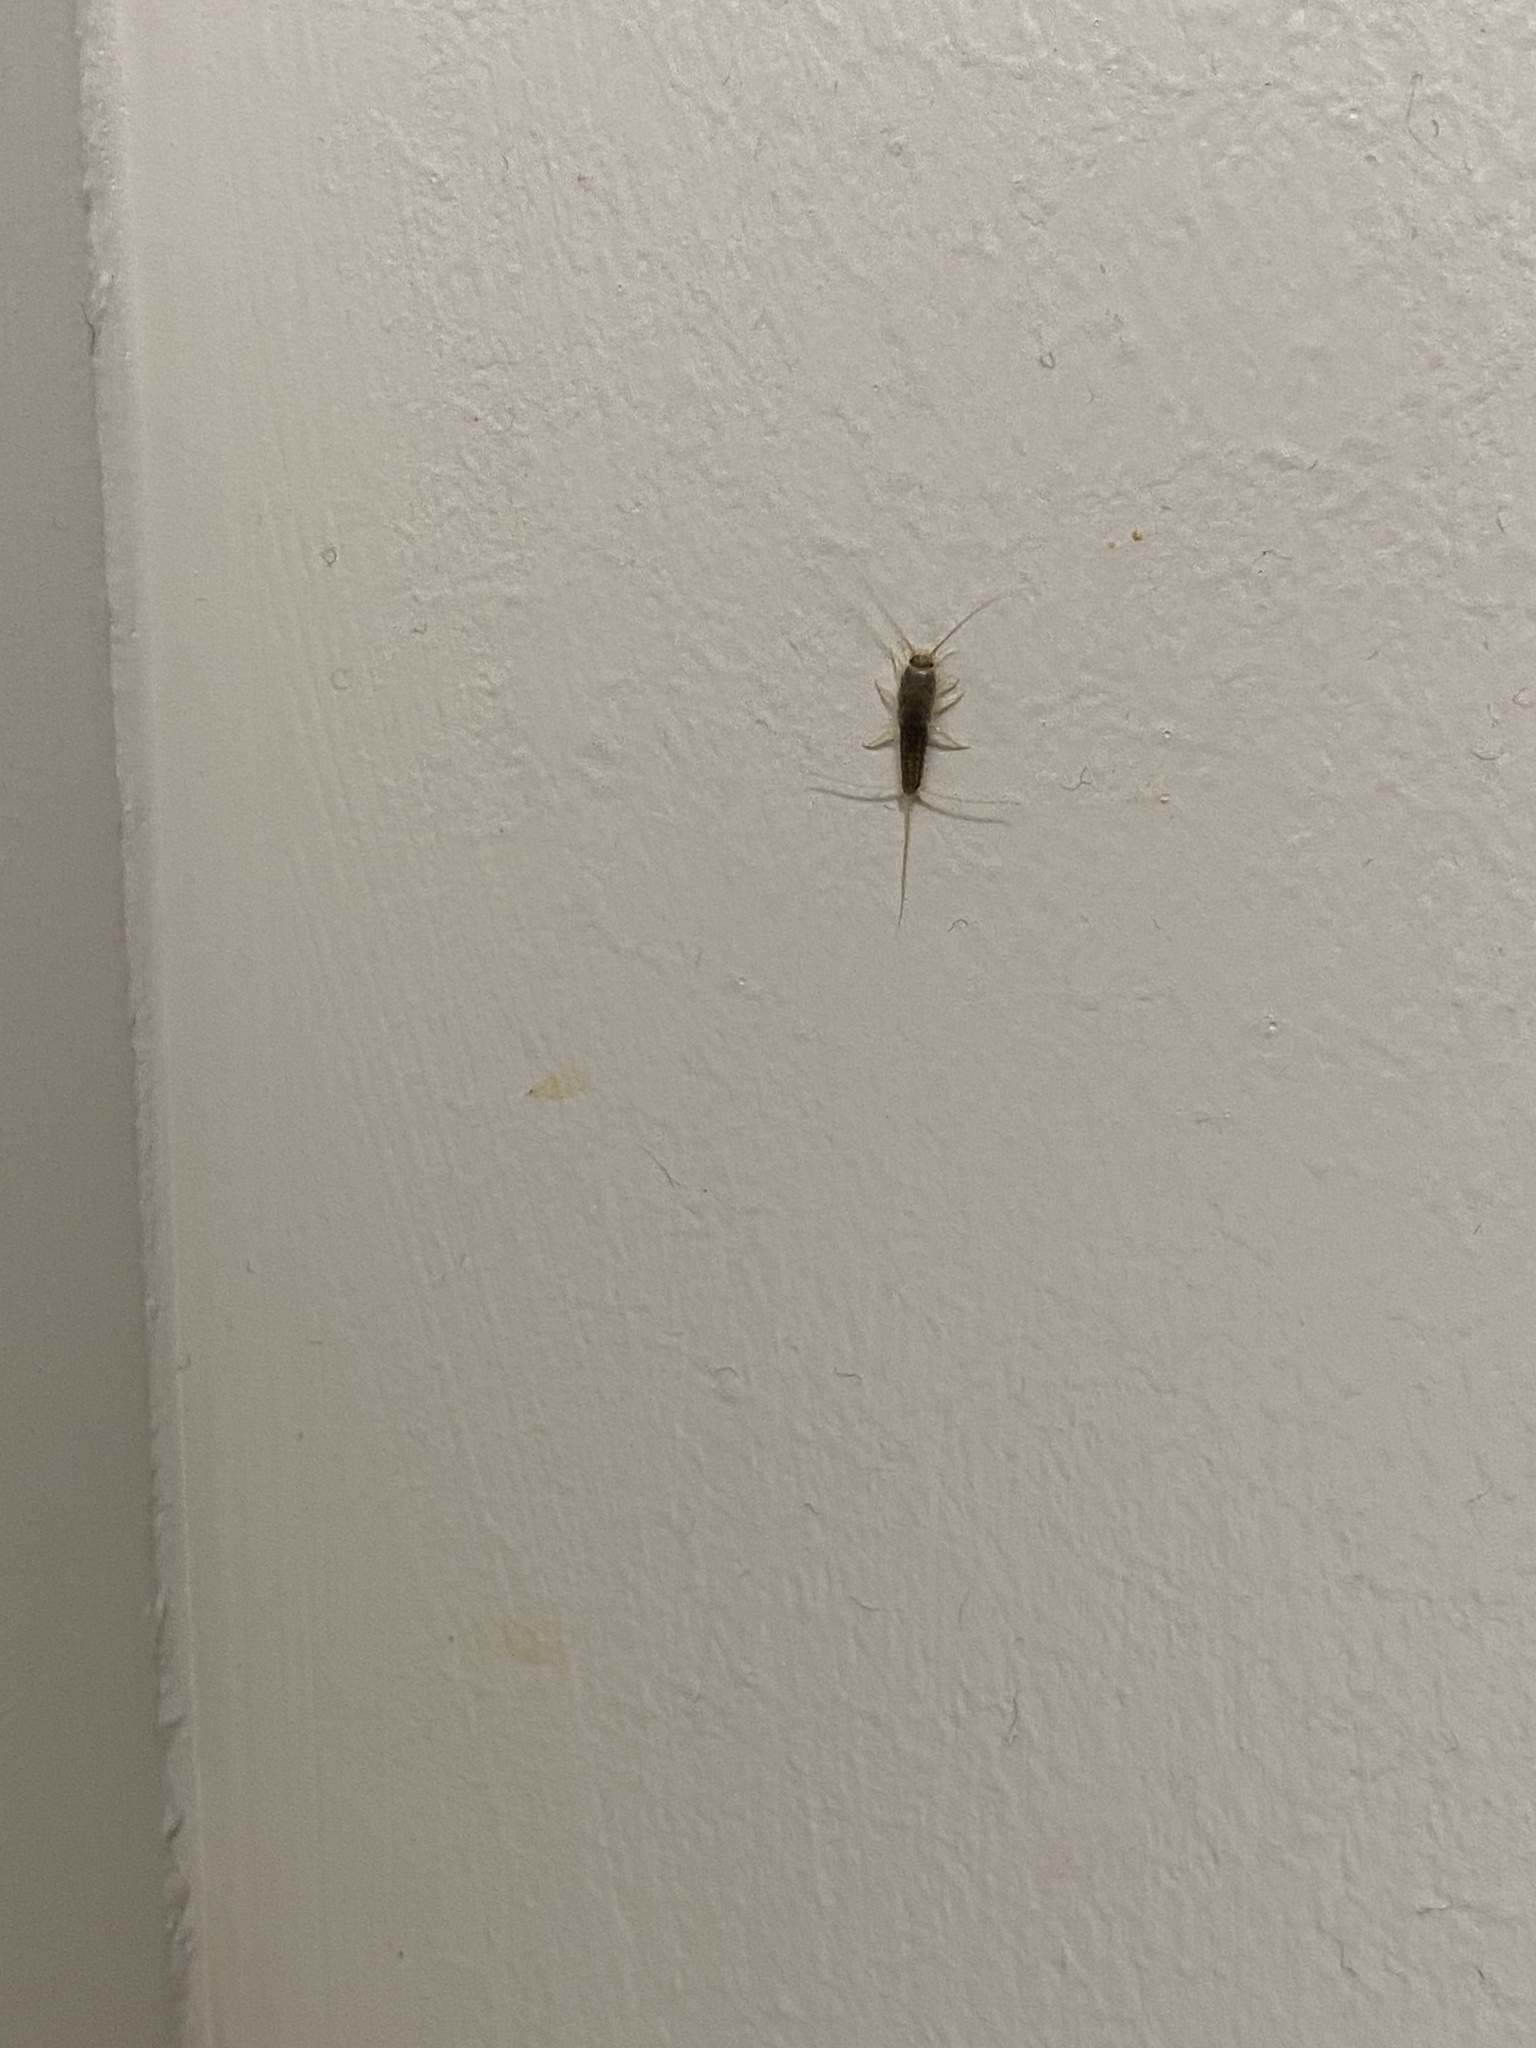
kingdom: Animalia
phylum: Arthropoda
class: Insecta
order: Zygentoma
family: Lepismatidae
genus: Ctenolepisma
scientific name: Ctenolepisma longicaudatum
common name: Silverfish
